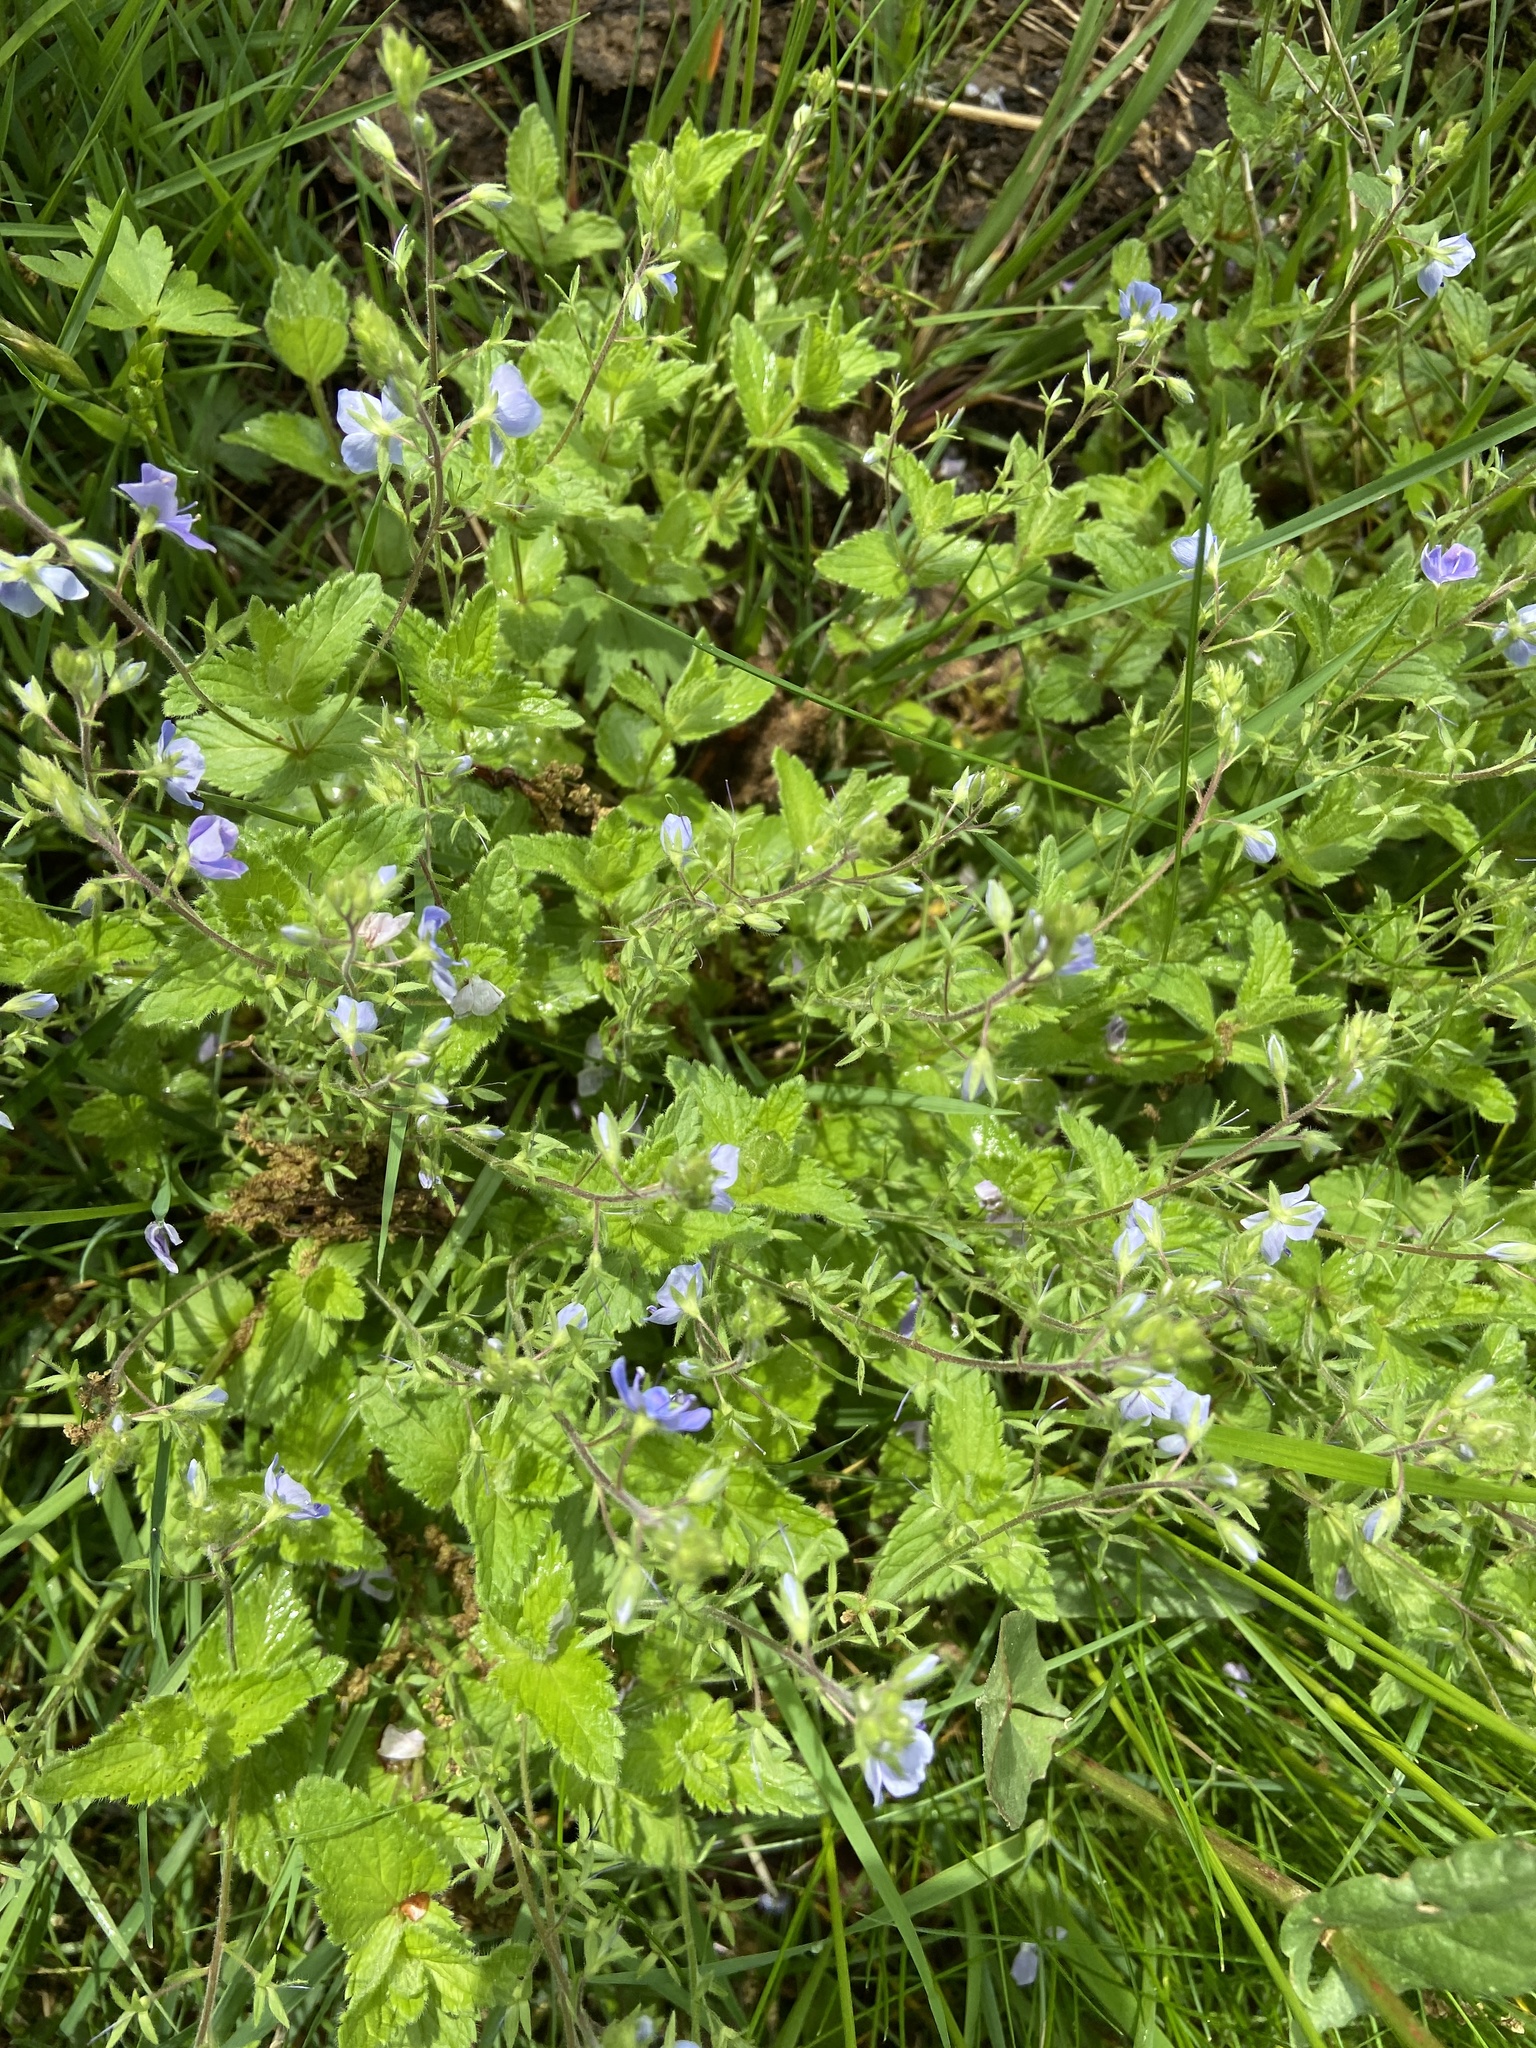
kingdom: Plantae
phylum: Tracheophyta
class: Magnoliopsida
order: Lamiales
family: Plantaginaceae
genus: Veronica
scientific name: Veronica chamaedrys
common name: Germander speedwell
